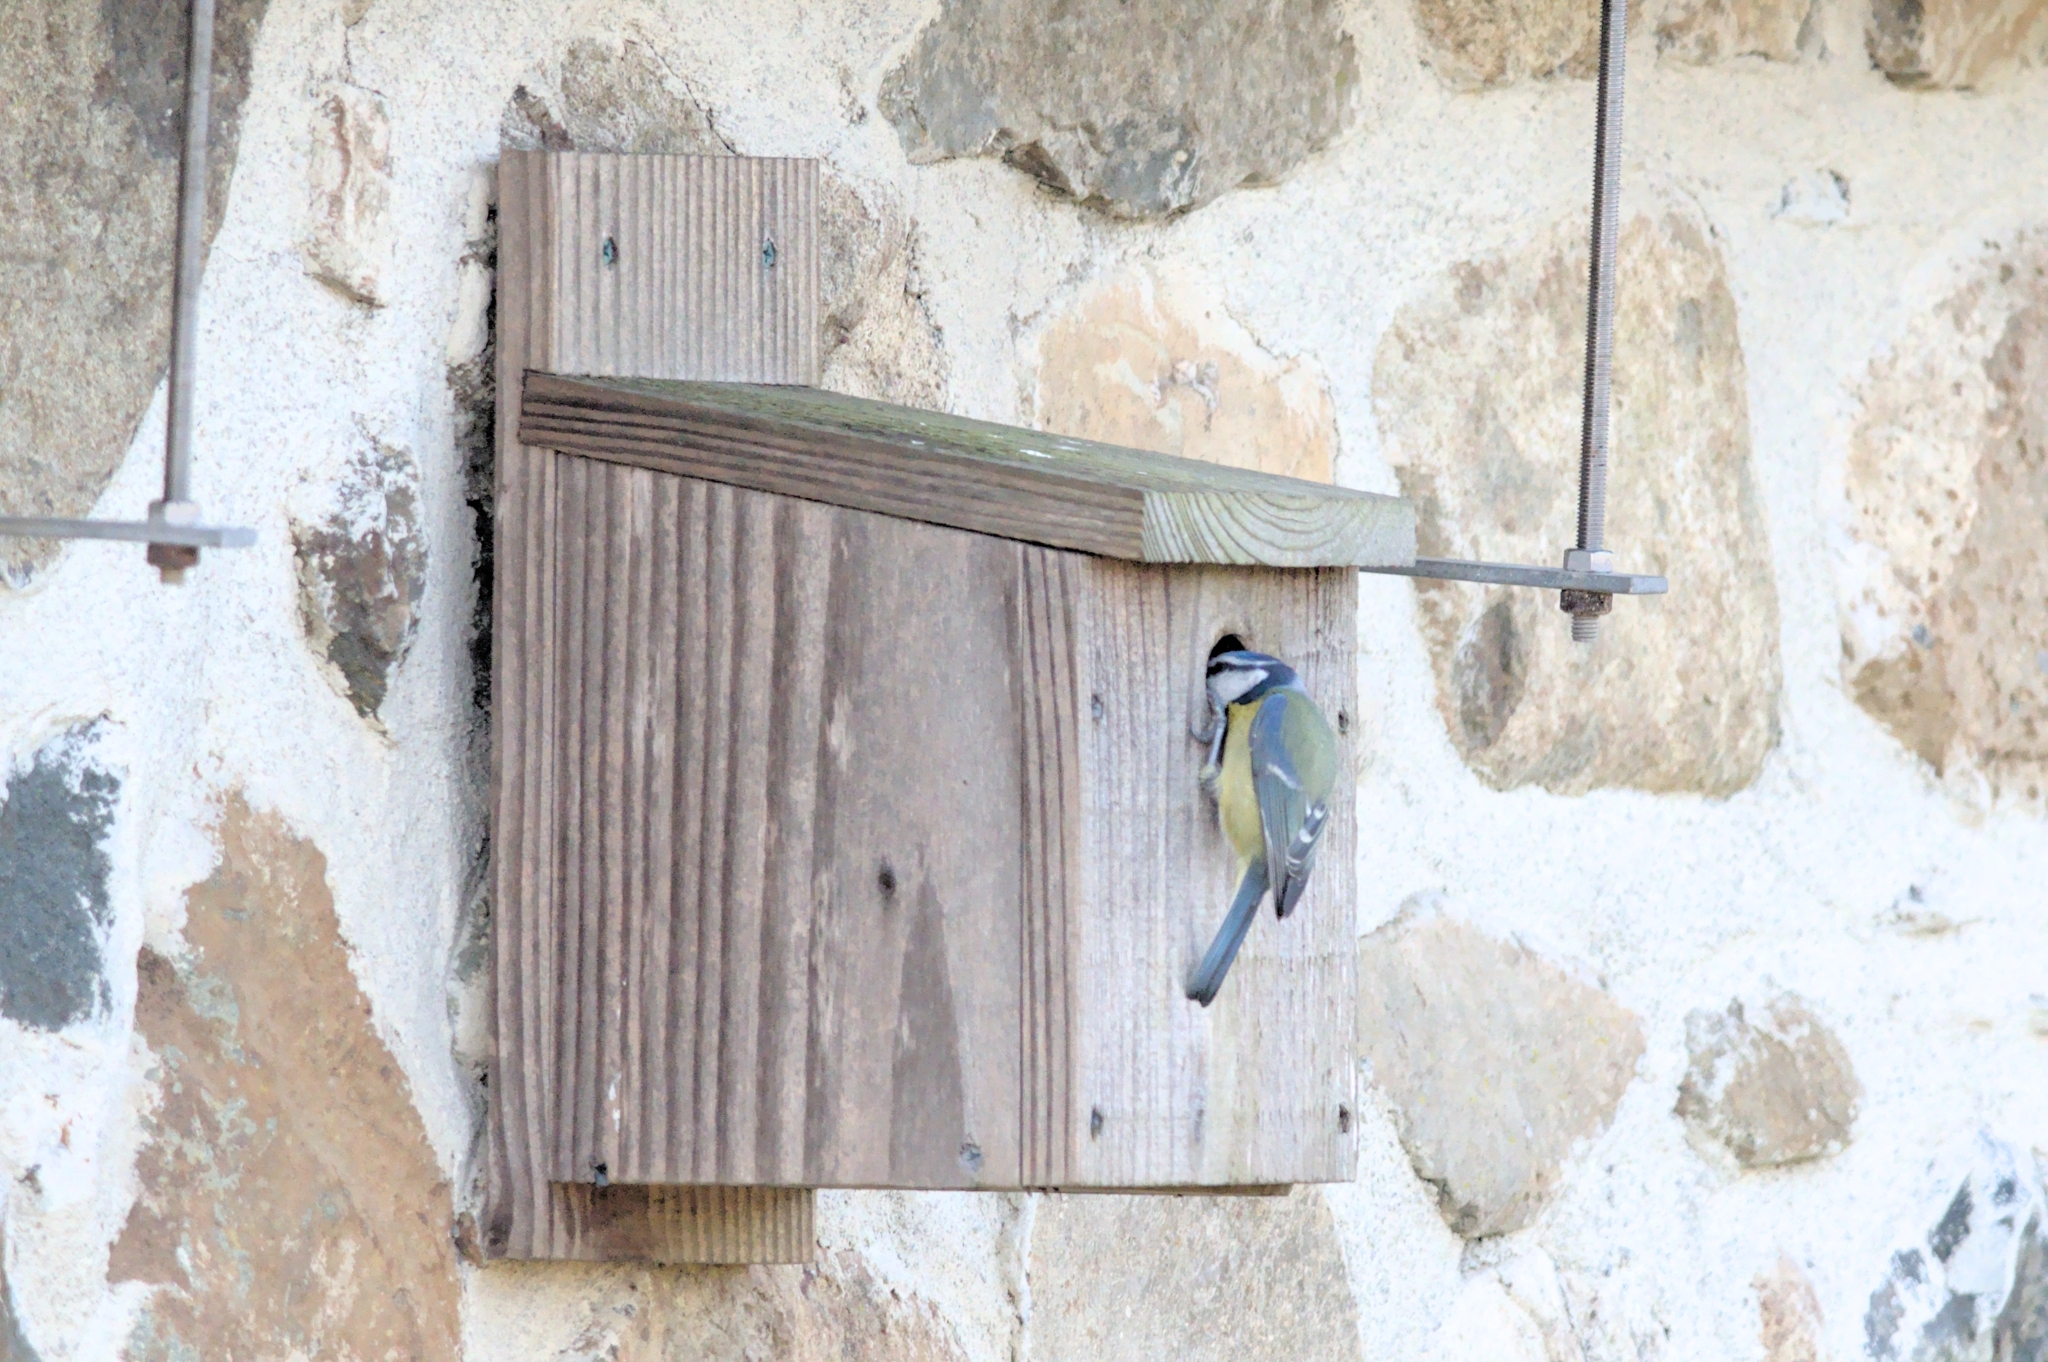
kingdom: Animalia
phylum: Chordata
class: Aves
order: Passeriformes
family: Paridae
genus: Cyanistes
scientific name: Cyanistes caeruleus
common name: Eurasian blue tit
